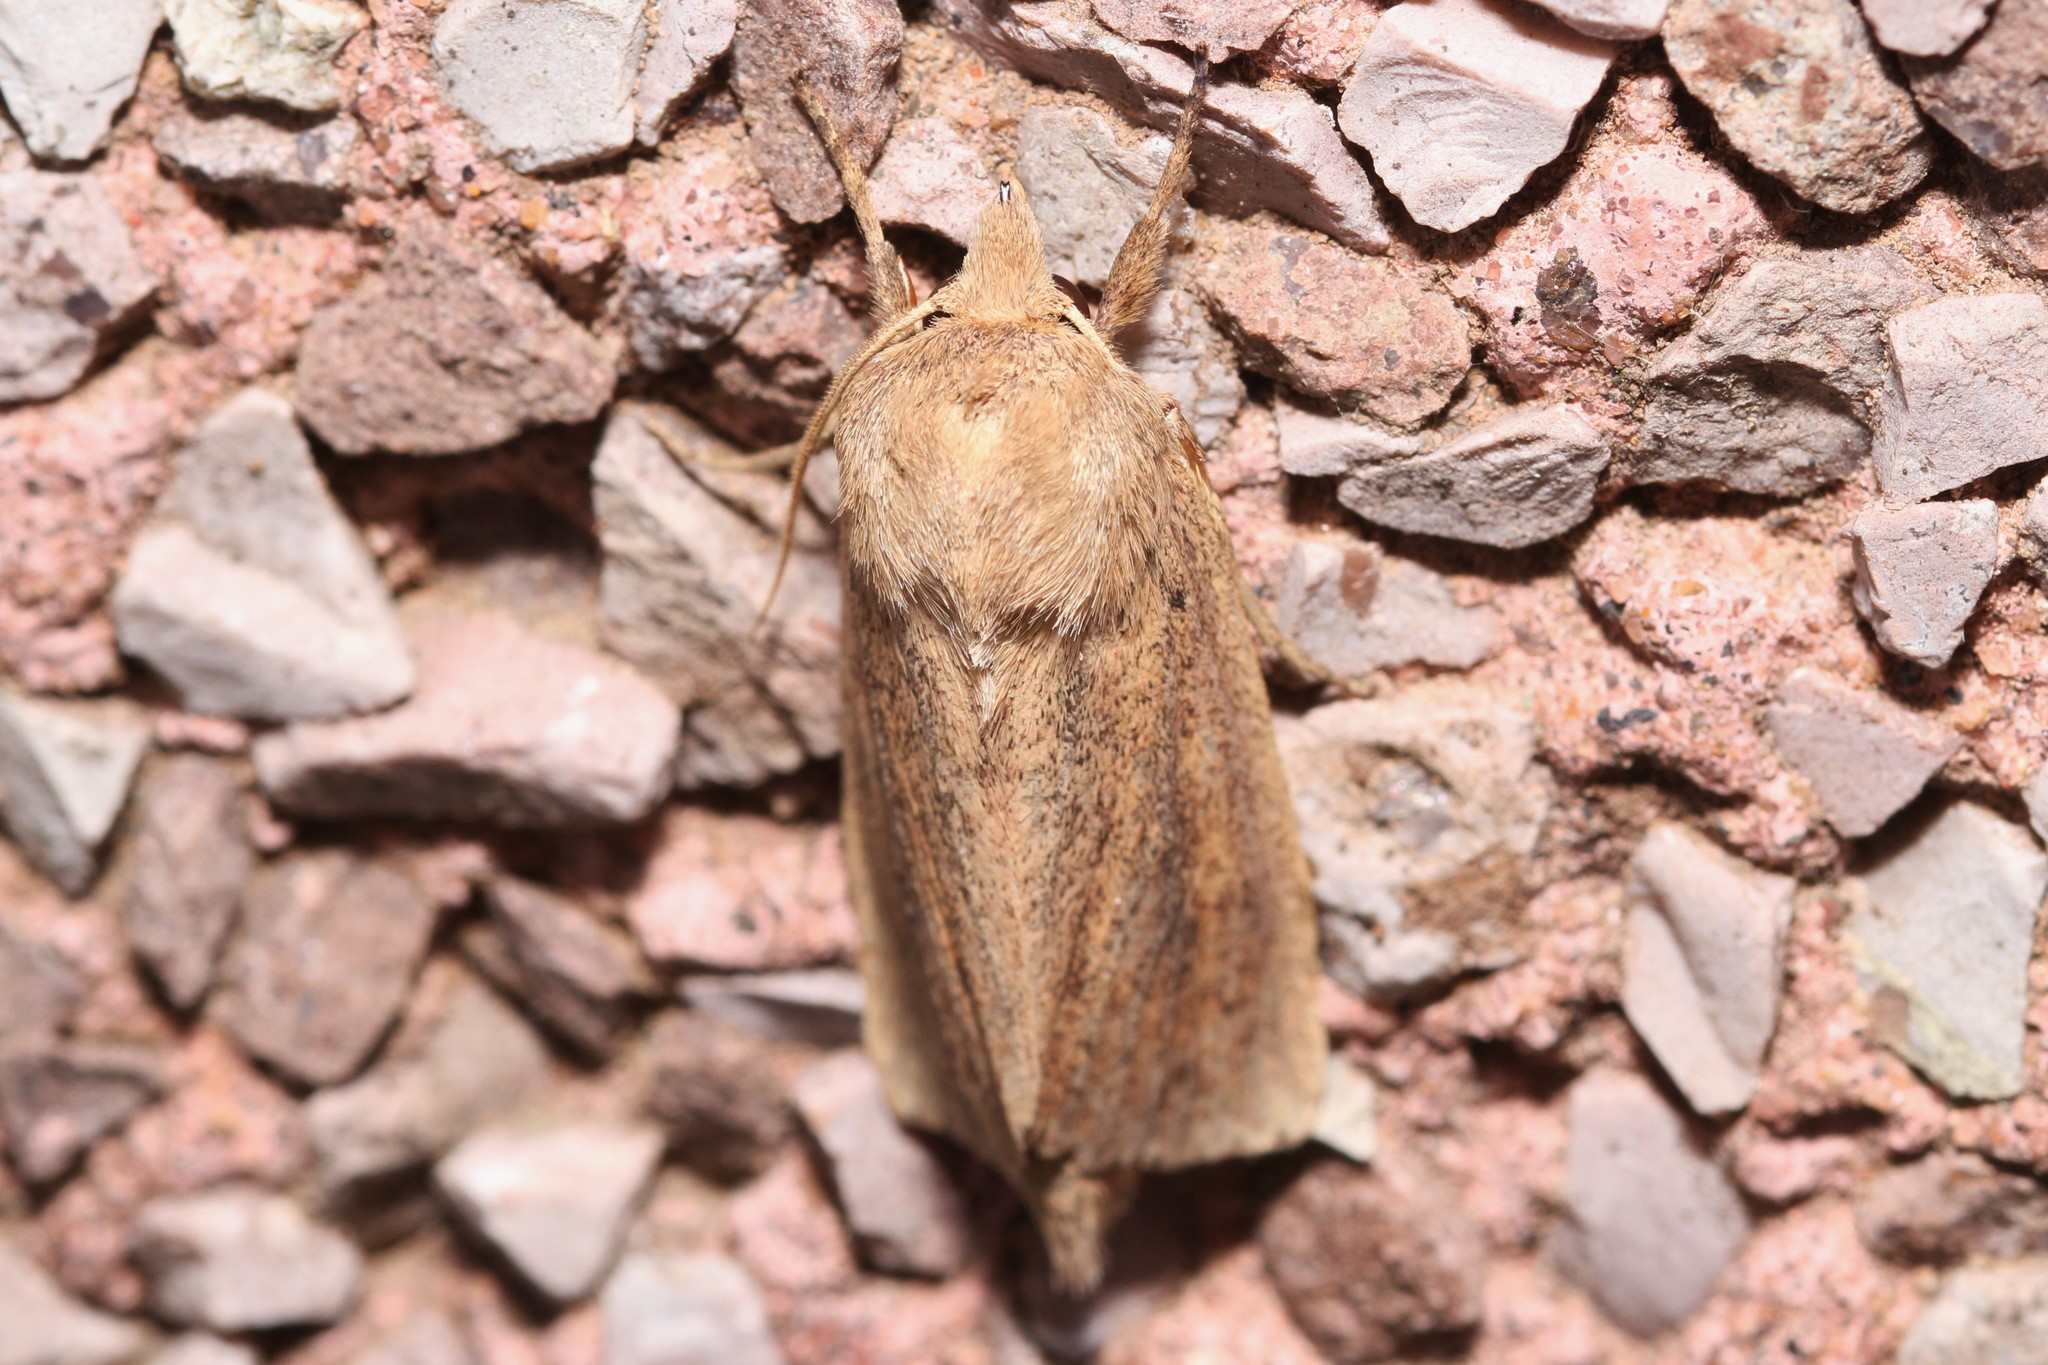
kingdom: Animalia
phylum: Arthropoda
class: Insecta
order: Lepidoptera
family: Noctuidae
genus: Globia
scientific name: Globia oblonga
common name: Oblong sedge borer moth
